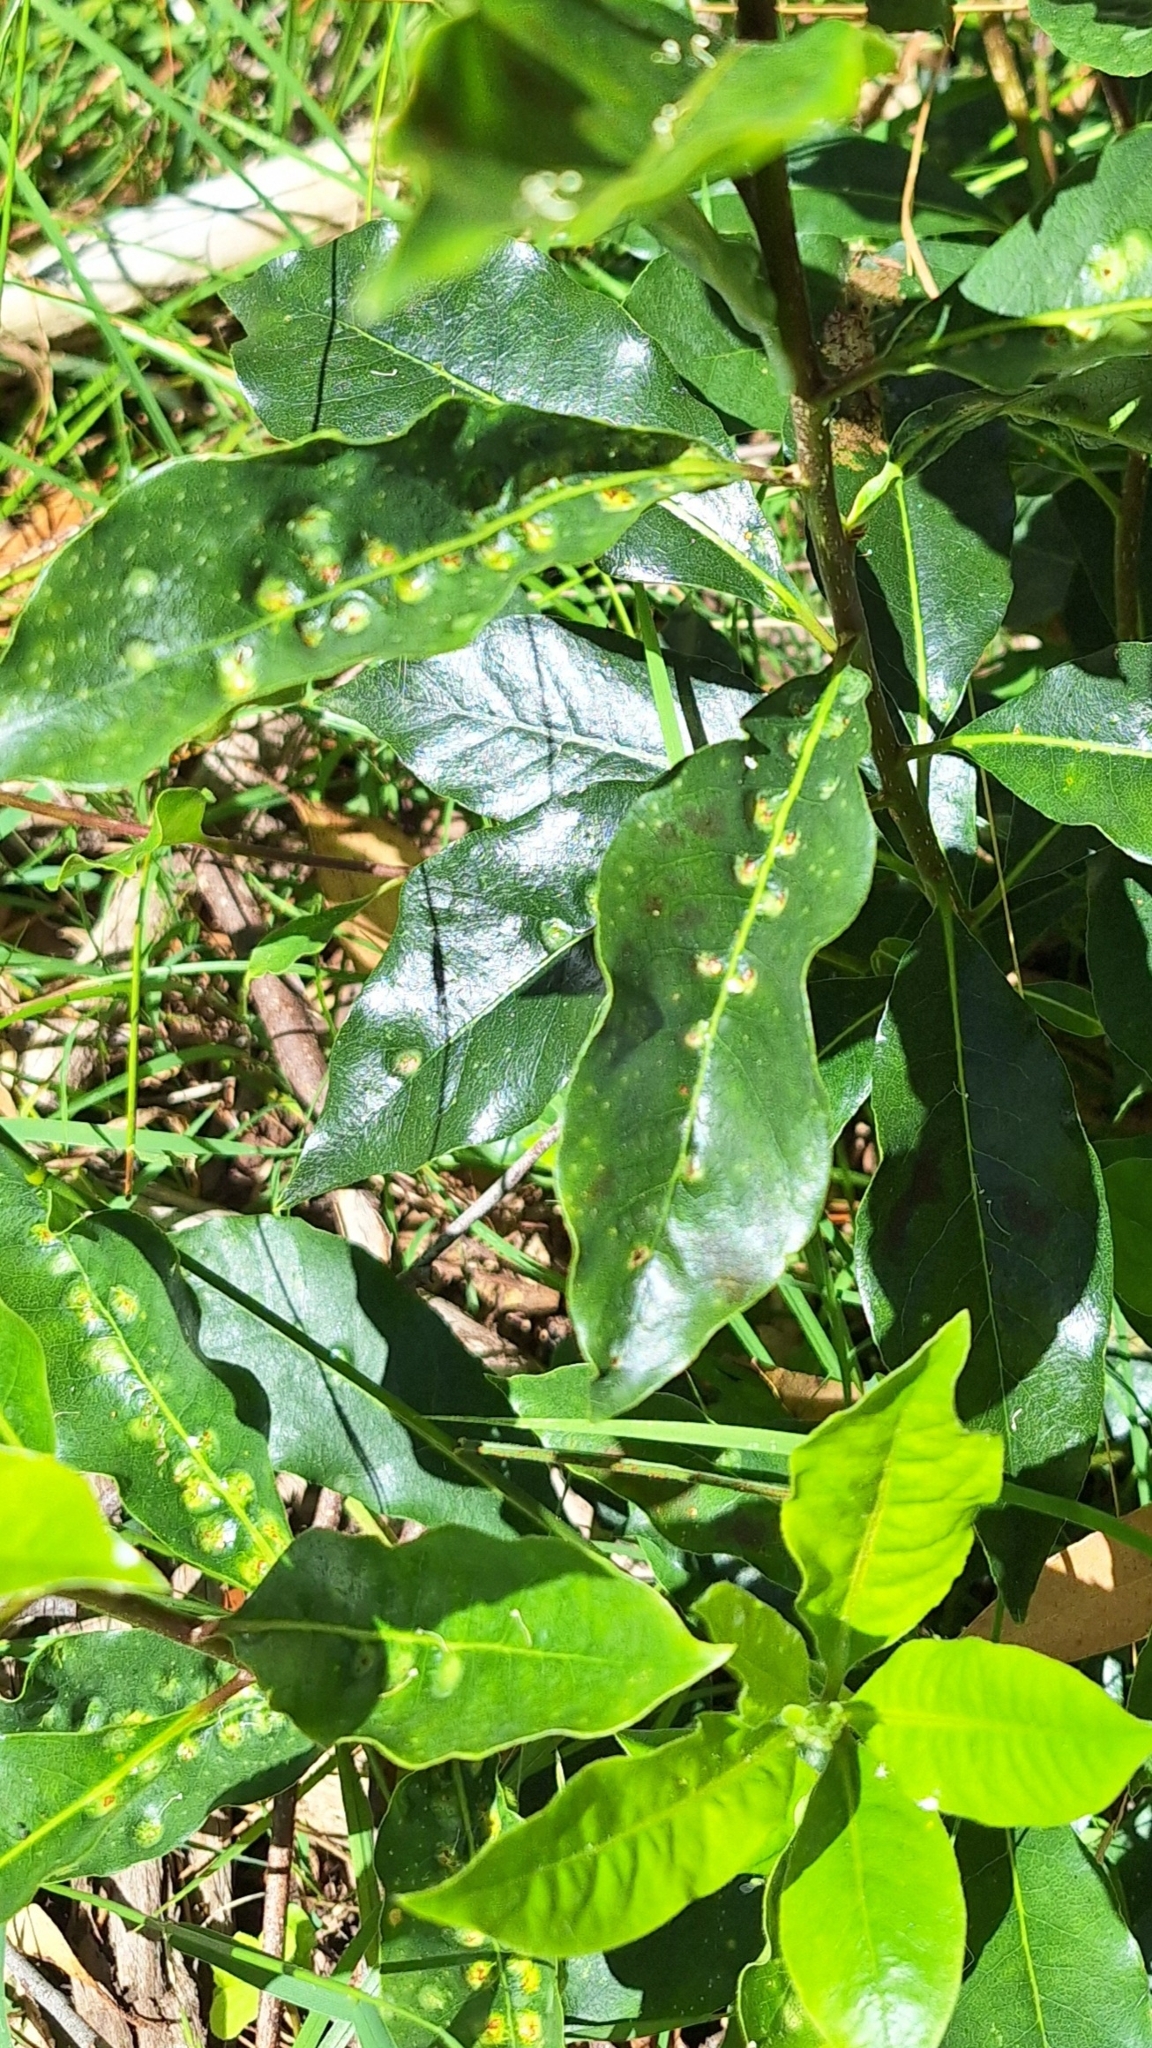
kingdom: Animalia
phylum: Arthropoda
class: Insecta
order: Diptera
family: Agromyzidae
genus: Phytoliriomyza
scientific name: Phytoliriomyza pittosporophylli
